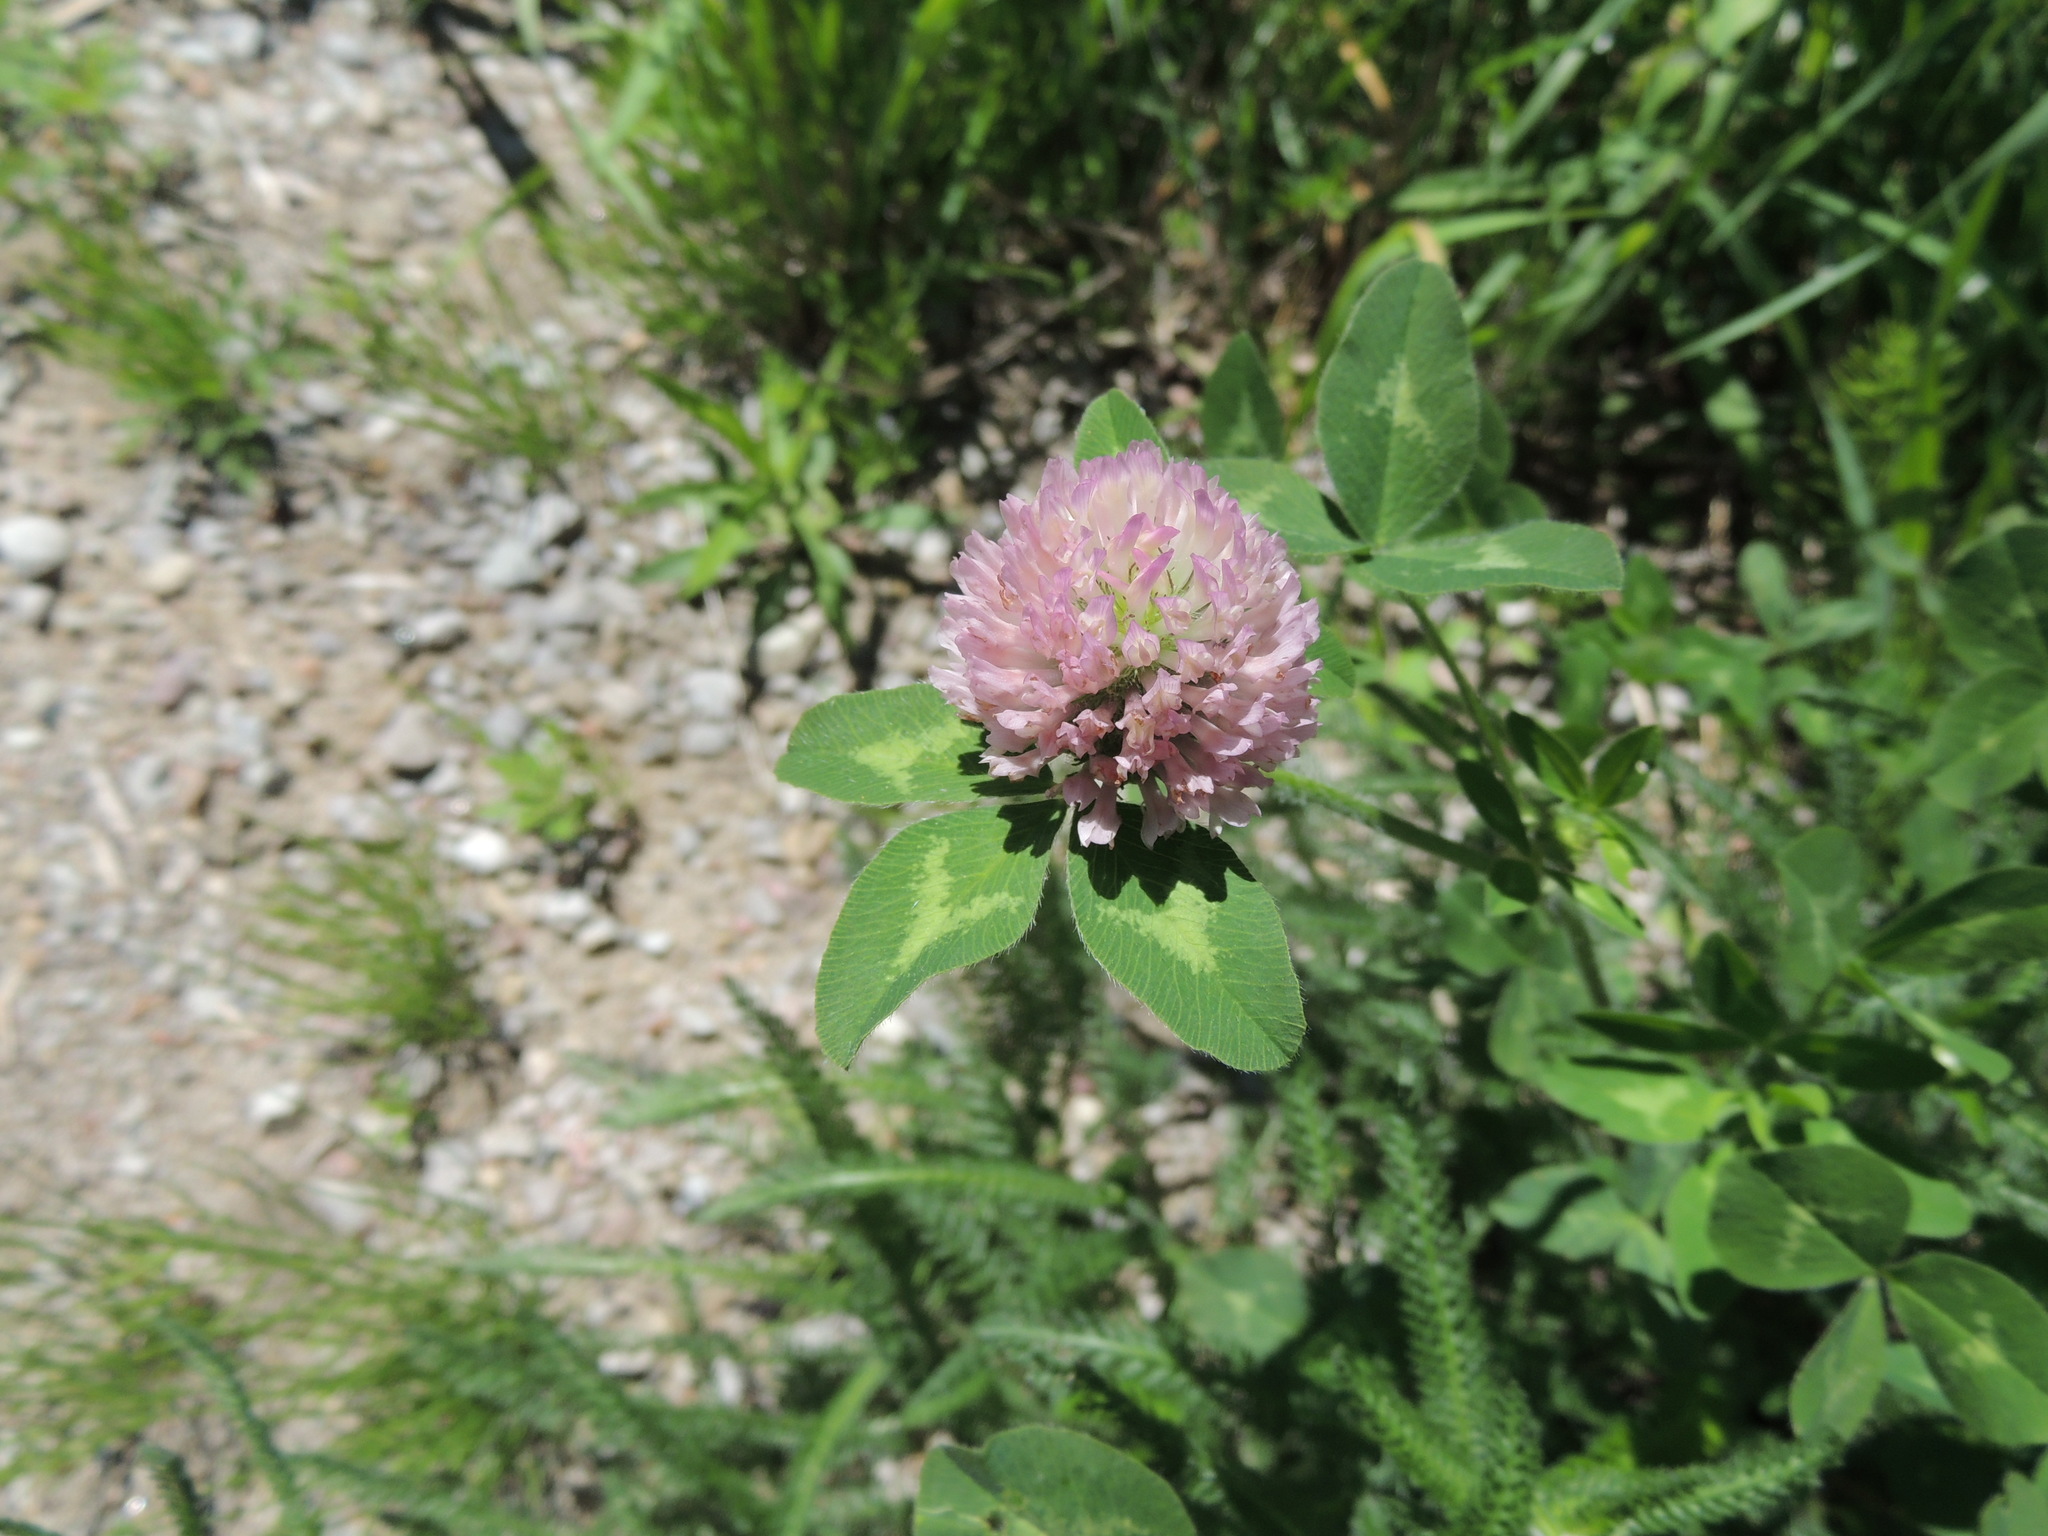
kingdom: Plantae
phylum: Tracheophyta
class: Magnoliopsida
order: Fabales
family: Fabaceae
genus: Trifolium
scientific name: Trifolium pratense
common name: Red clover
